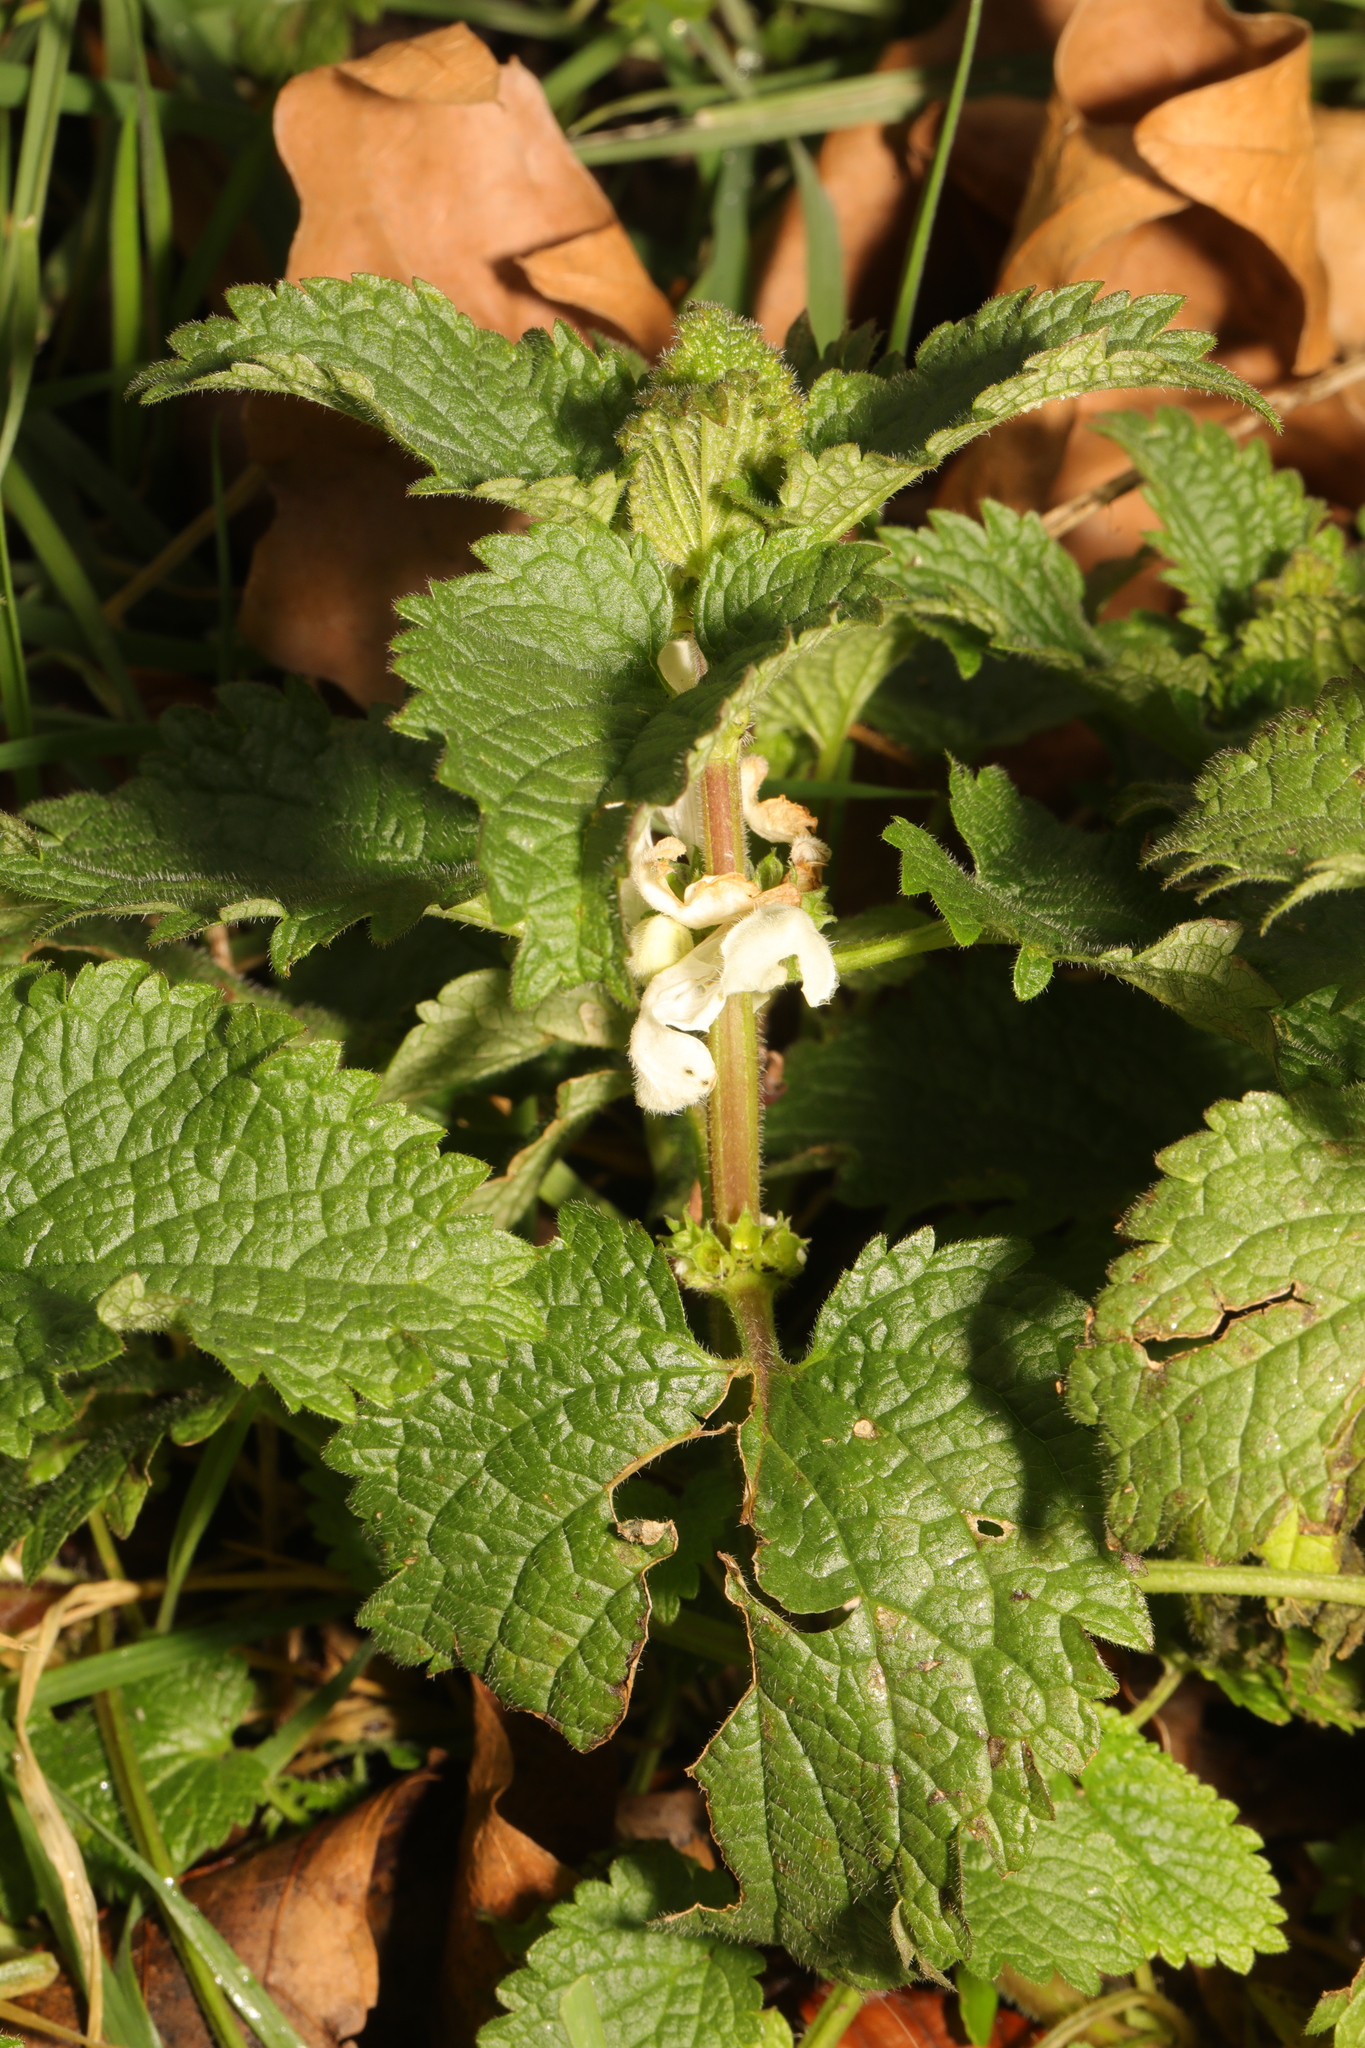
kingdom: Plantae
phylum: Tracheophyta
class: Magnoliopsida
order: Lamiales
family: Lamiaceae
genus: Lamium
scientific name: Lamium album
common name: White dead-nettle
